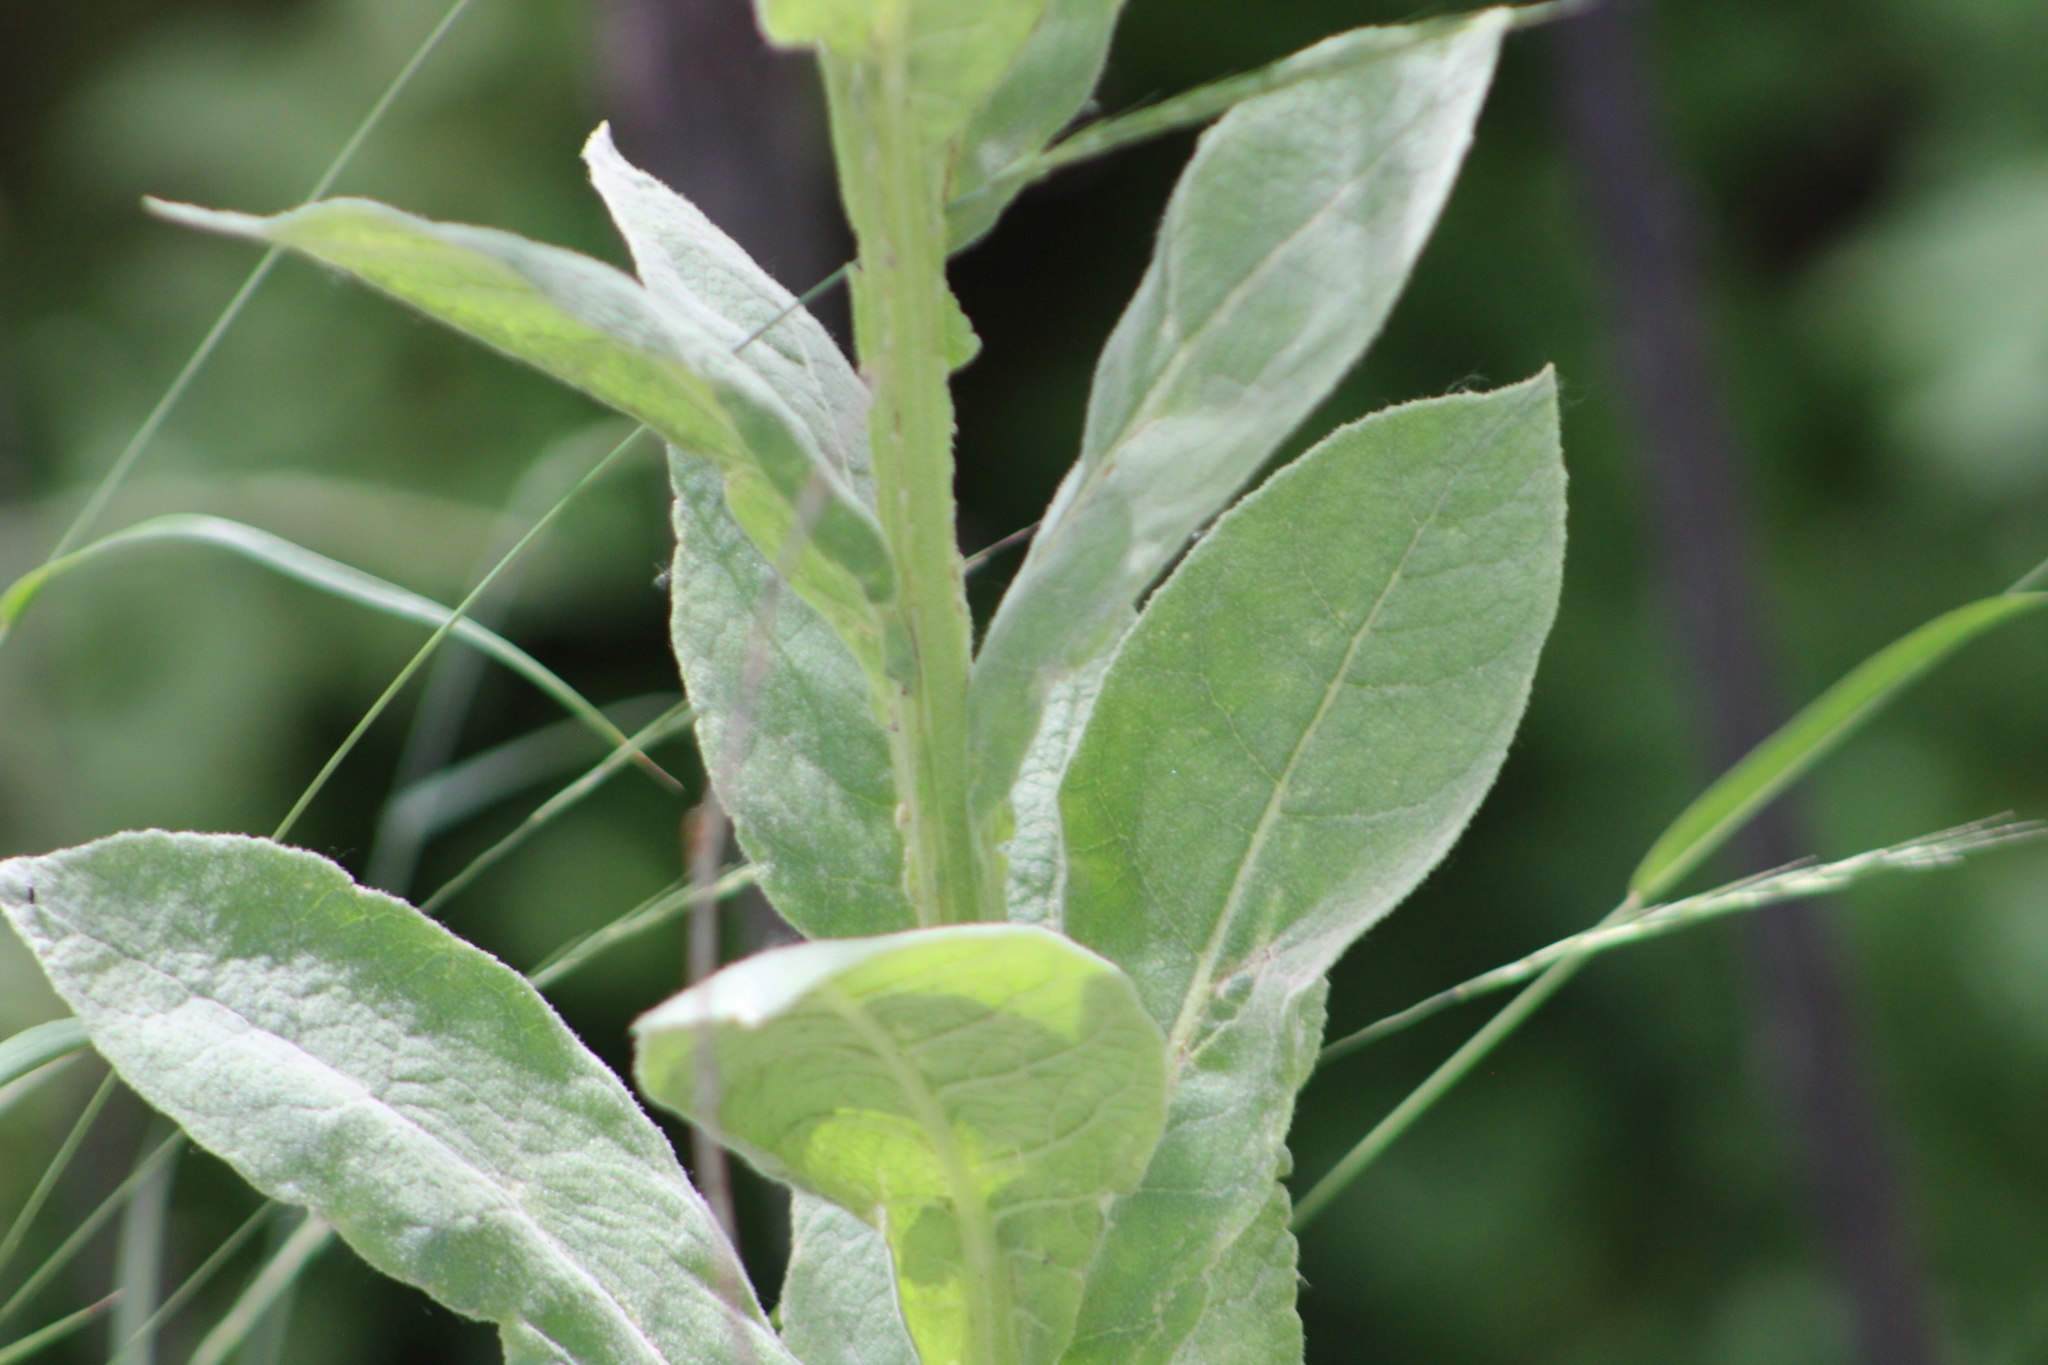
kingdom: Plantae
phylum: Tracheophyta
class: Magnoliopsida
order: Lamiales
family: Scrophulariaceae
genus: Verbascum
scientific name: Verbascum thapsus
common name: Common mullein
